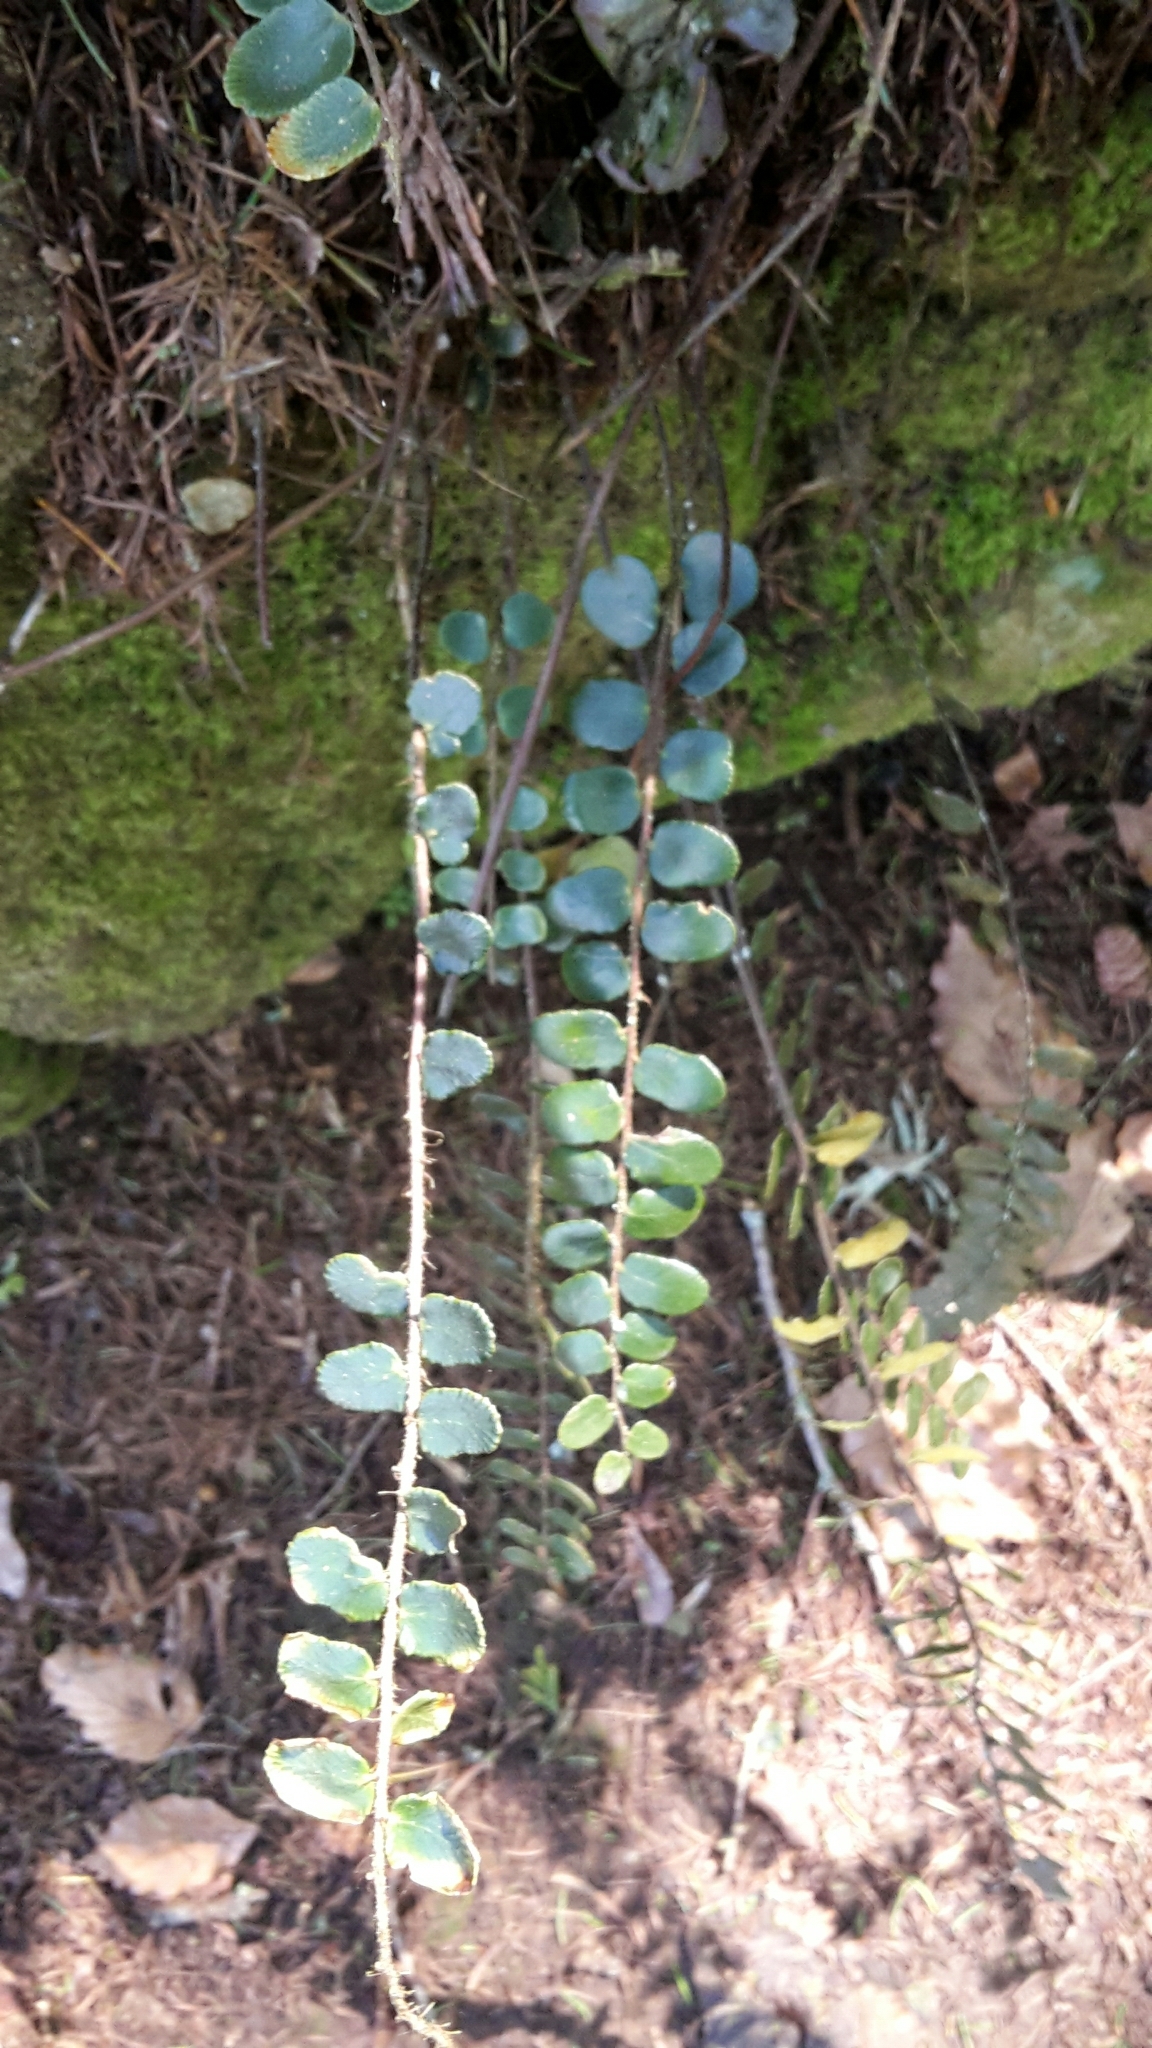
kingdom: Plantae
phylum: Tracheophyta
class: Polypodiopsida
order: Polypodiales
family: Pteridaceae
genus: Pellaea
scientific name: Pellaea rotundifolia
